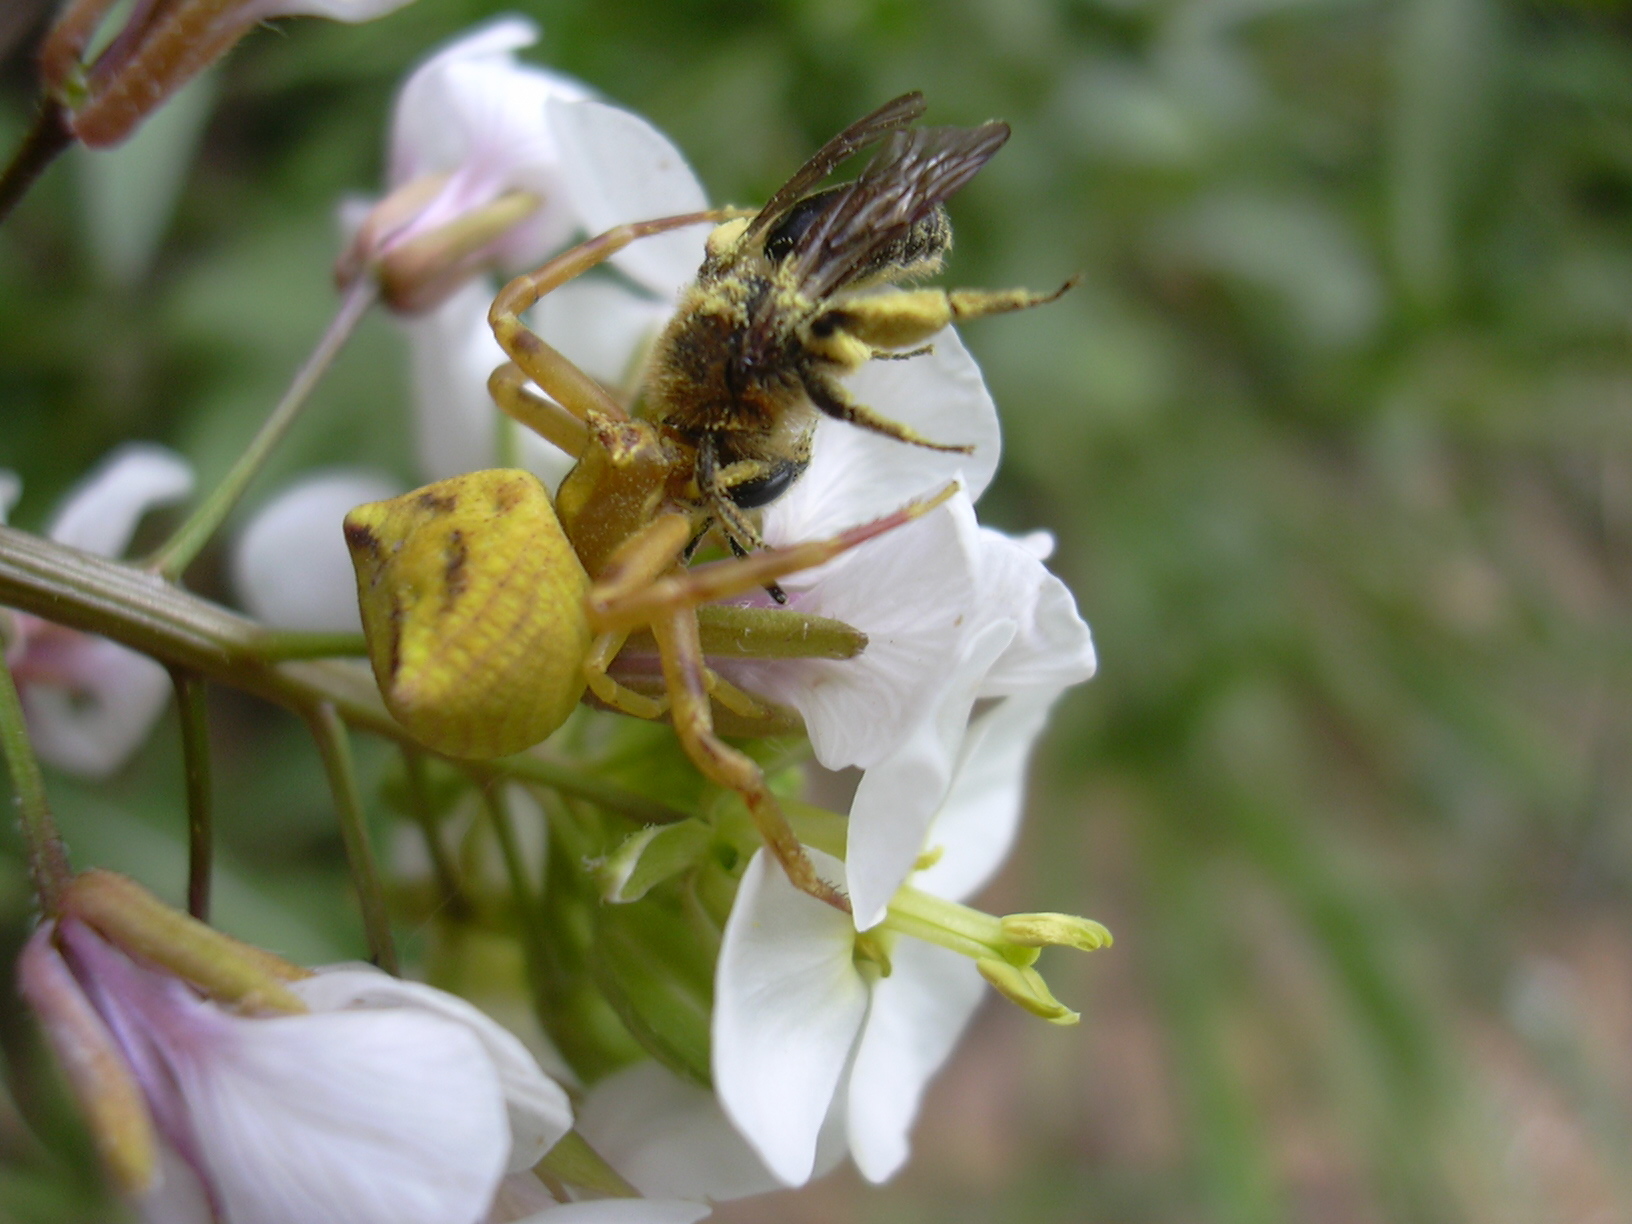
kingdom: Animalia
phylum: Arthropoda
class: Arachnida
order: Araneae
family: Thomisidae
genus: Thomisus
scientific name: Thomisus onustus
